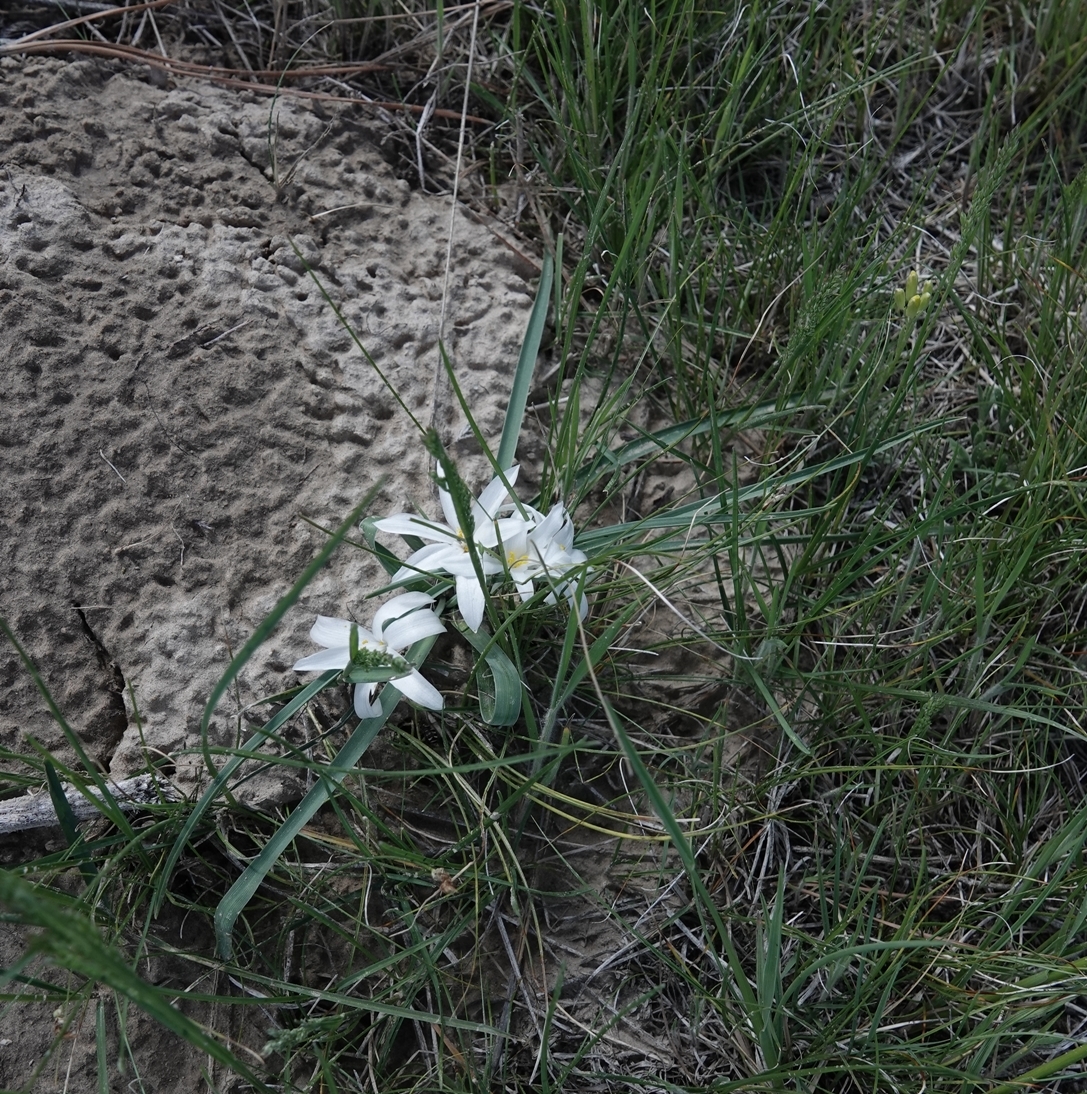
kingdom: Plantae
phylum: Tracheophyta
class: Liliopsida
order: Asparagales
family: Asparagaceae
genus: Leucocrinum
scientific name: Leucocrinum montanum
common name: Mountain-lily
